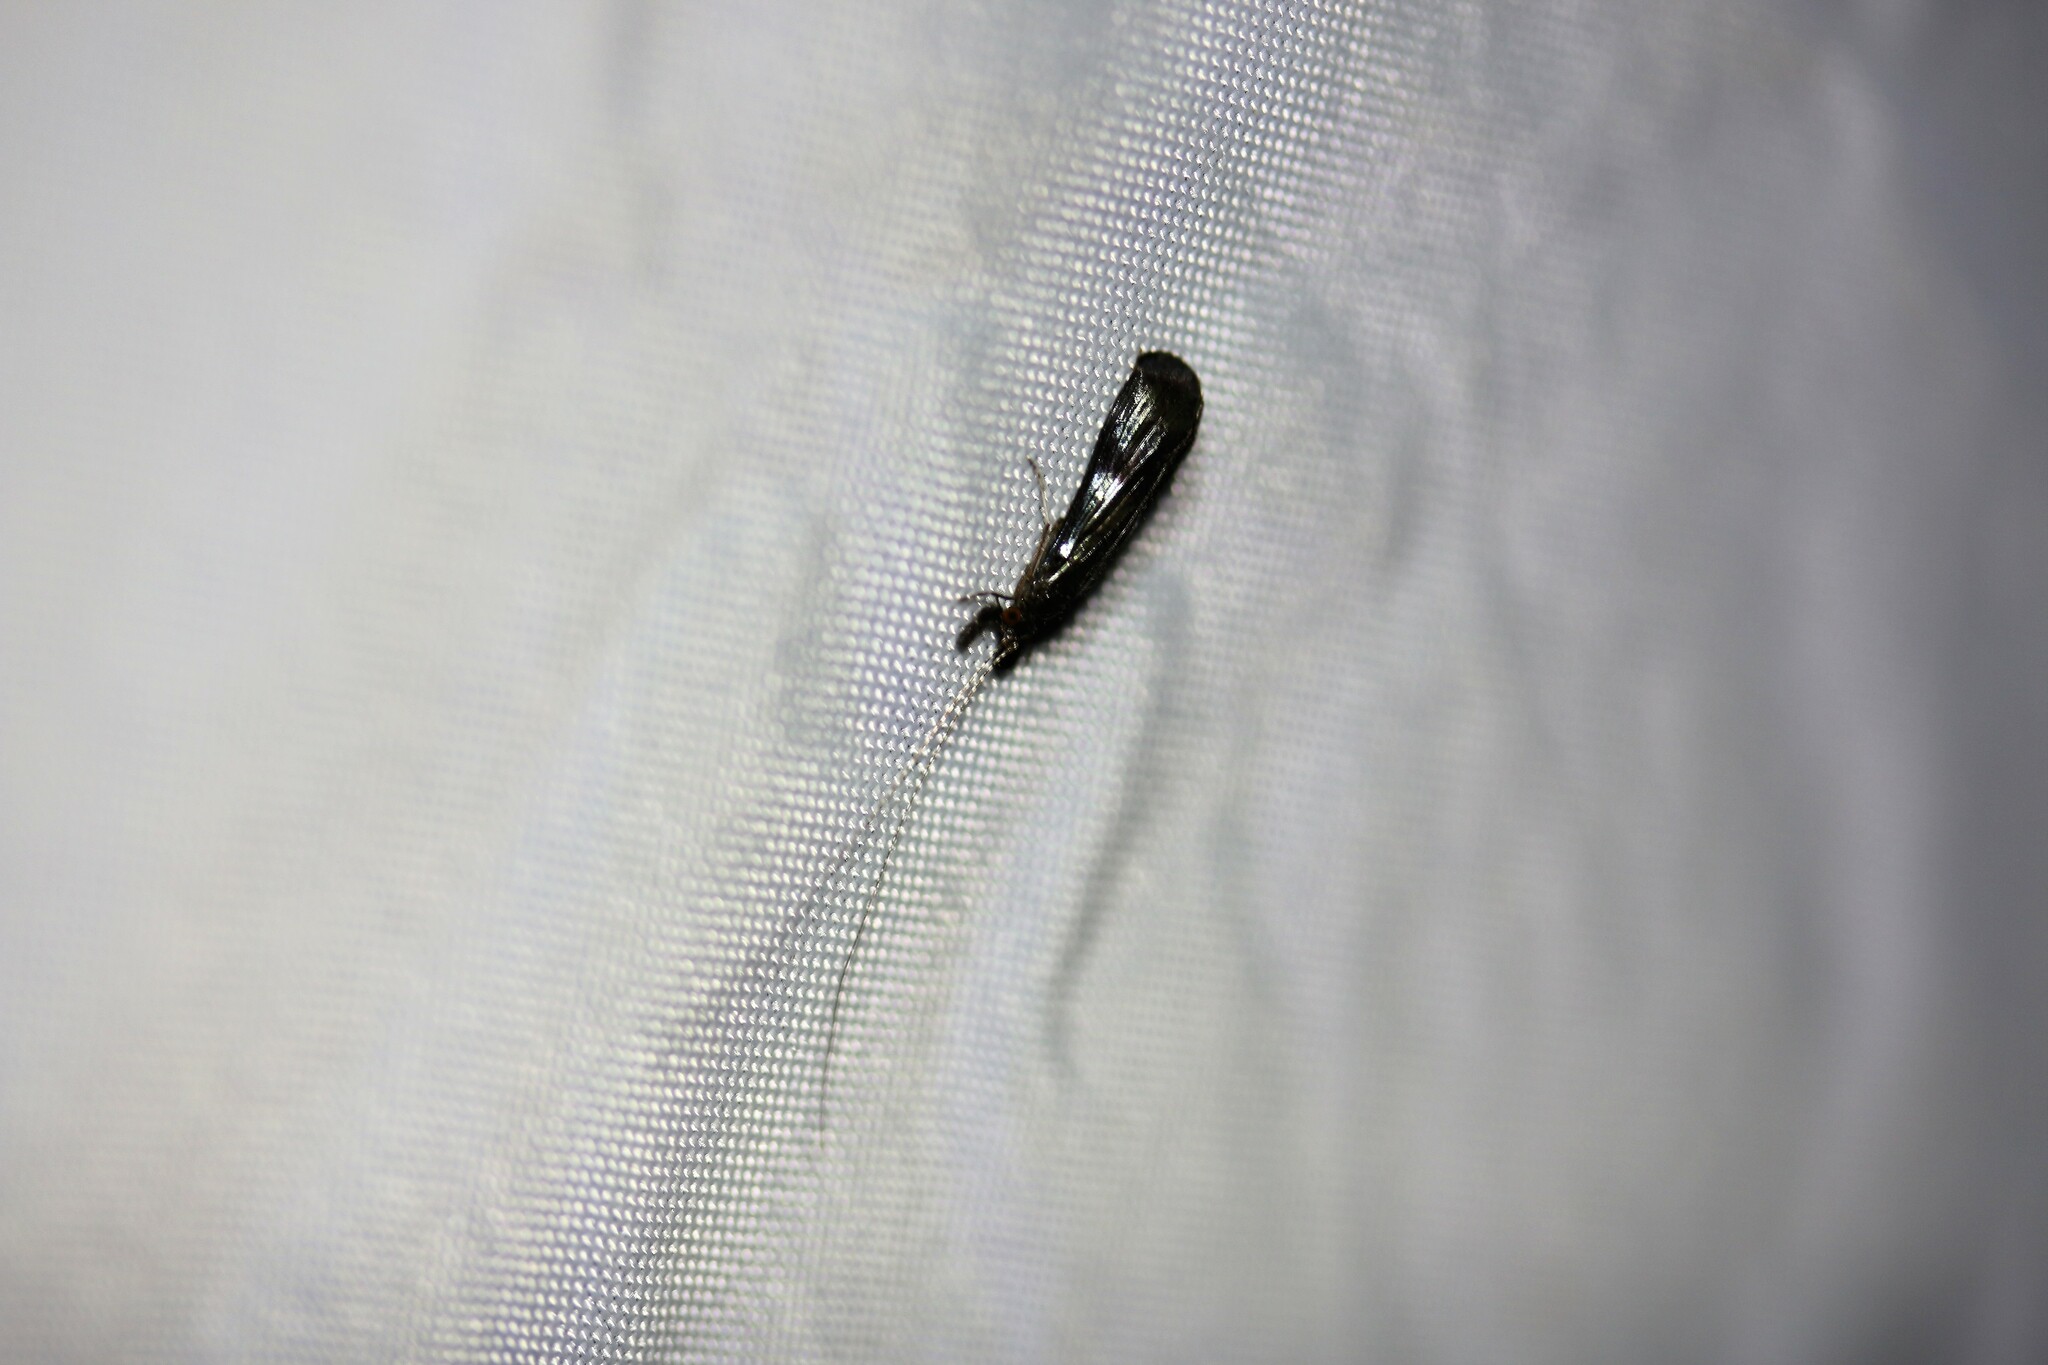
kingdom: Animalia
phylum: Arthropoda
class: Insecta
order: Trichoptera
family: Leptoceridae
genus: Mystacides
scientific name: Mystacides azureus
